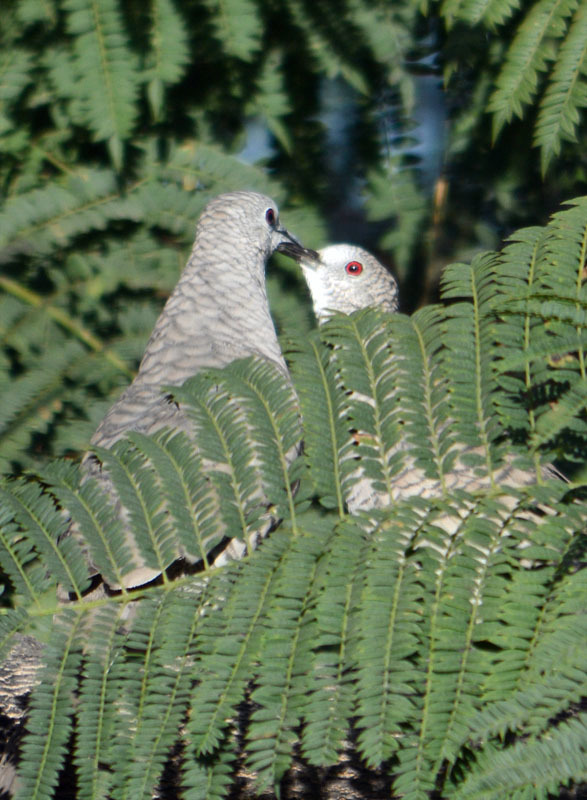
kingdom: Animalia
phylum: Chordata
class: Aves
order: Columbiformes
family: Columbidae
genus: Columbina
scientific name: Columbina inca
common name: Inca dove
